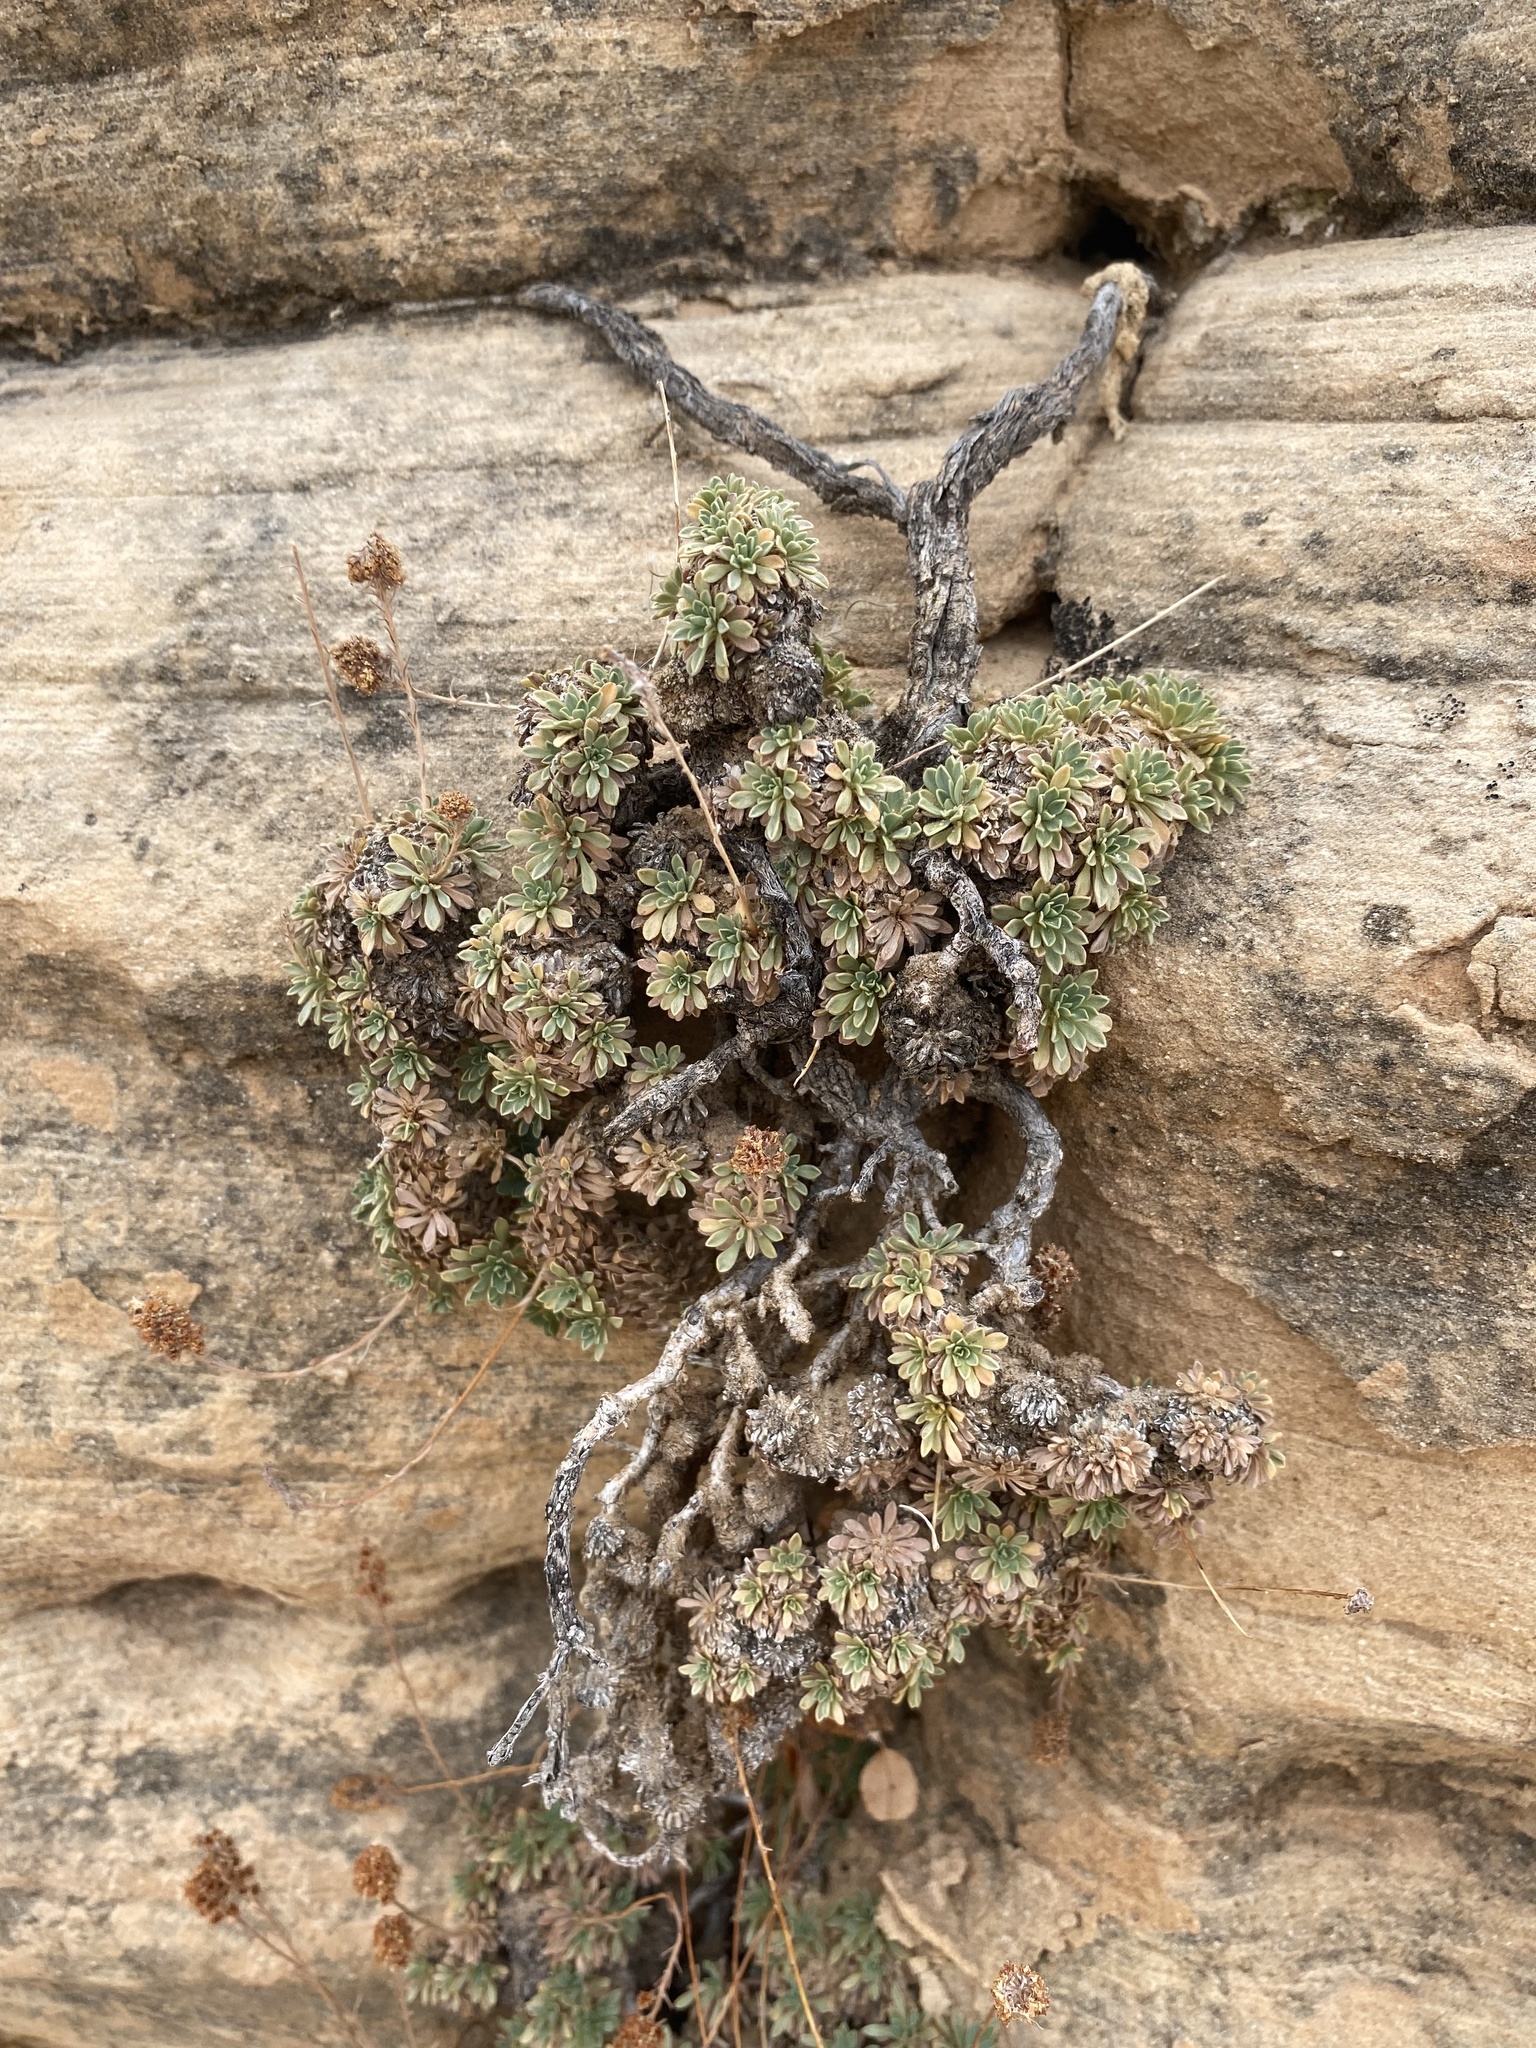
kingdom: Plantae
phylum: Tracheophyta
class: Magnoliopsida
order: Rosales
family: Rosaceae
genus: Petrophytum
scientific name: Petrophytum caespitosum
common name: Mat rockspirea
